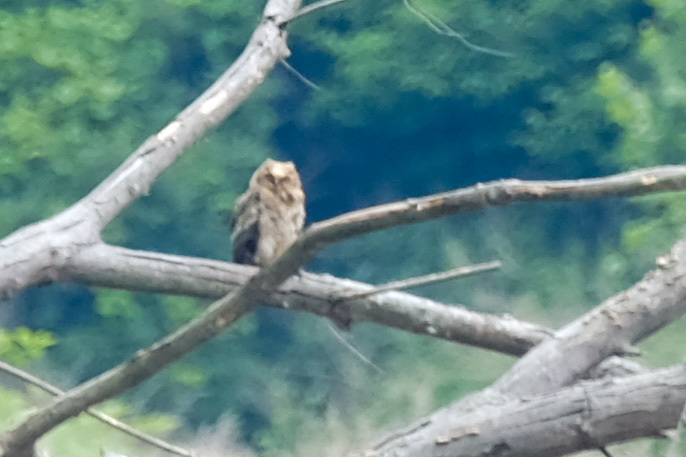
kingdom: Animalia
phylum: Chordata
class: Aves
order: Strigiformes
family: Strigidae
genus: Bubo
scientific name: Bubo virginianus
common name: Great horned owl
